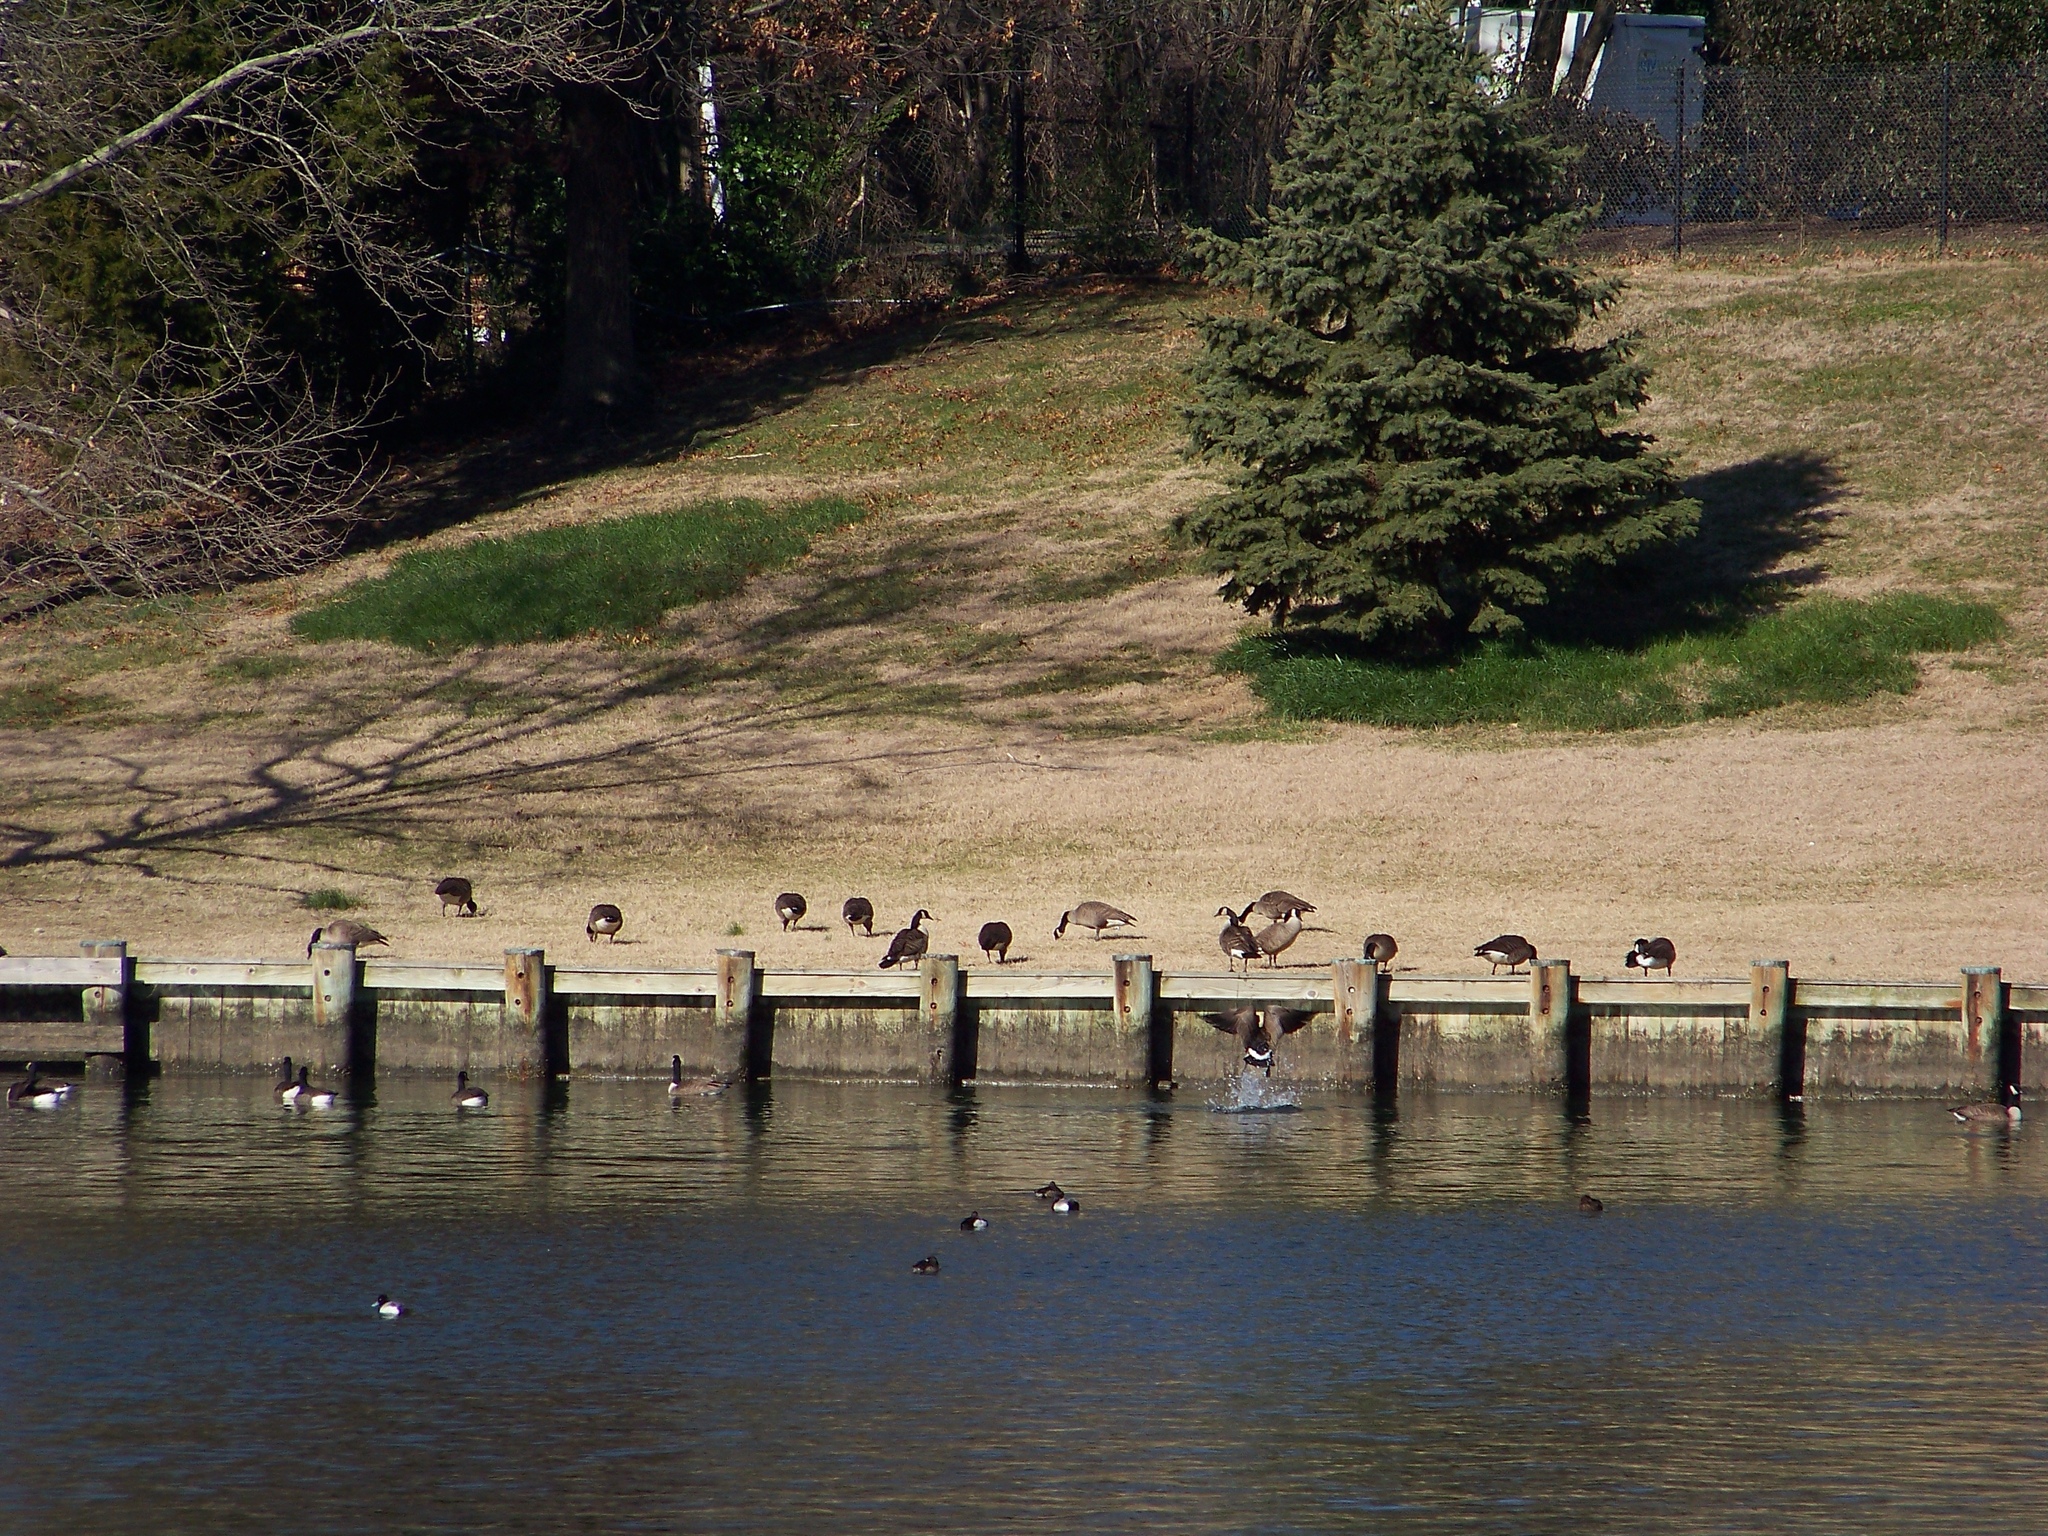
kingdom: Animalia
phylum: Chordata
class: Aves
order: Anseriformes
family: Anatidae
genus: Branta
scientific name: Branta canadensis
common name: Canada goose
